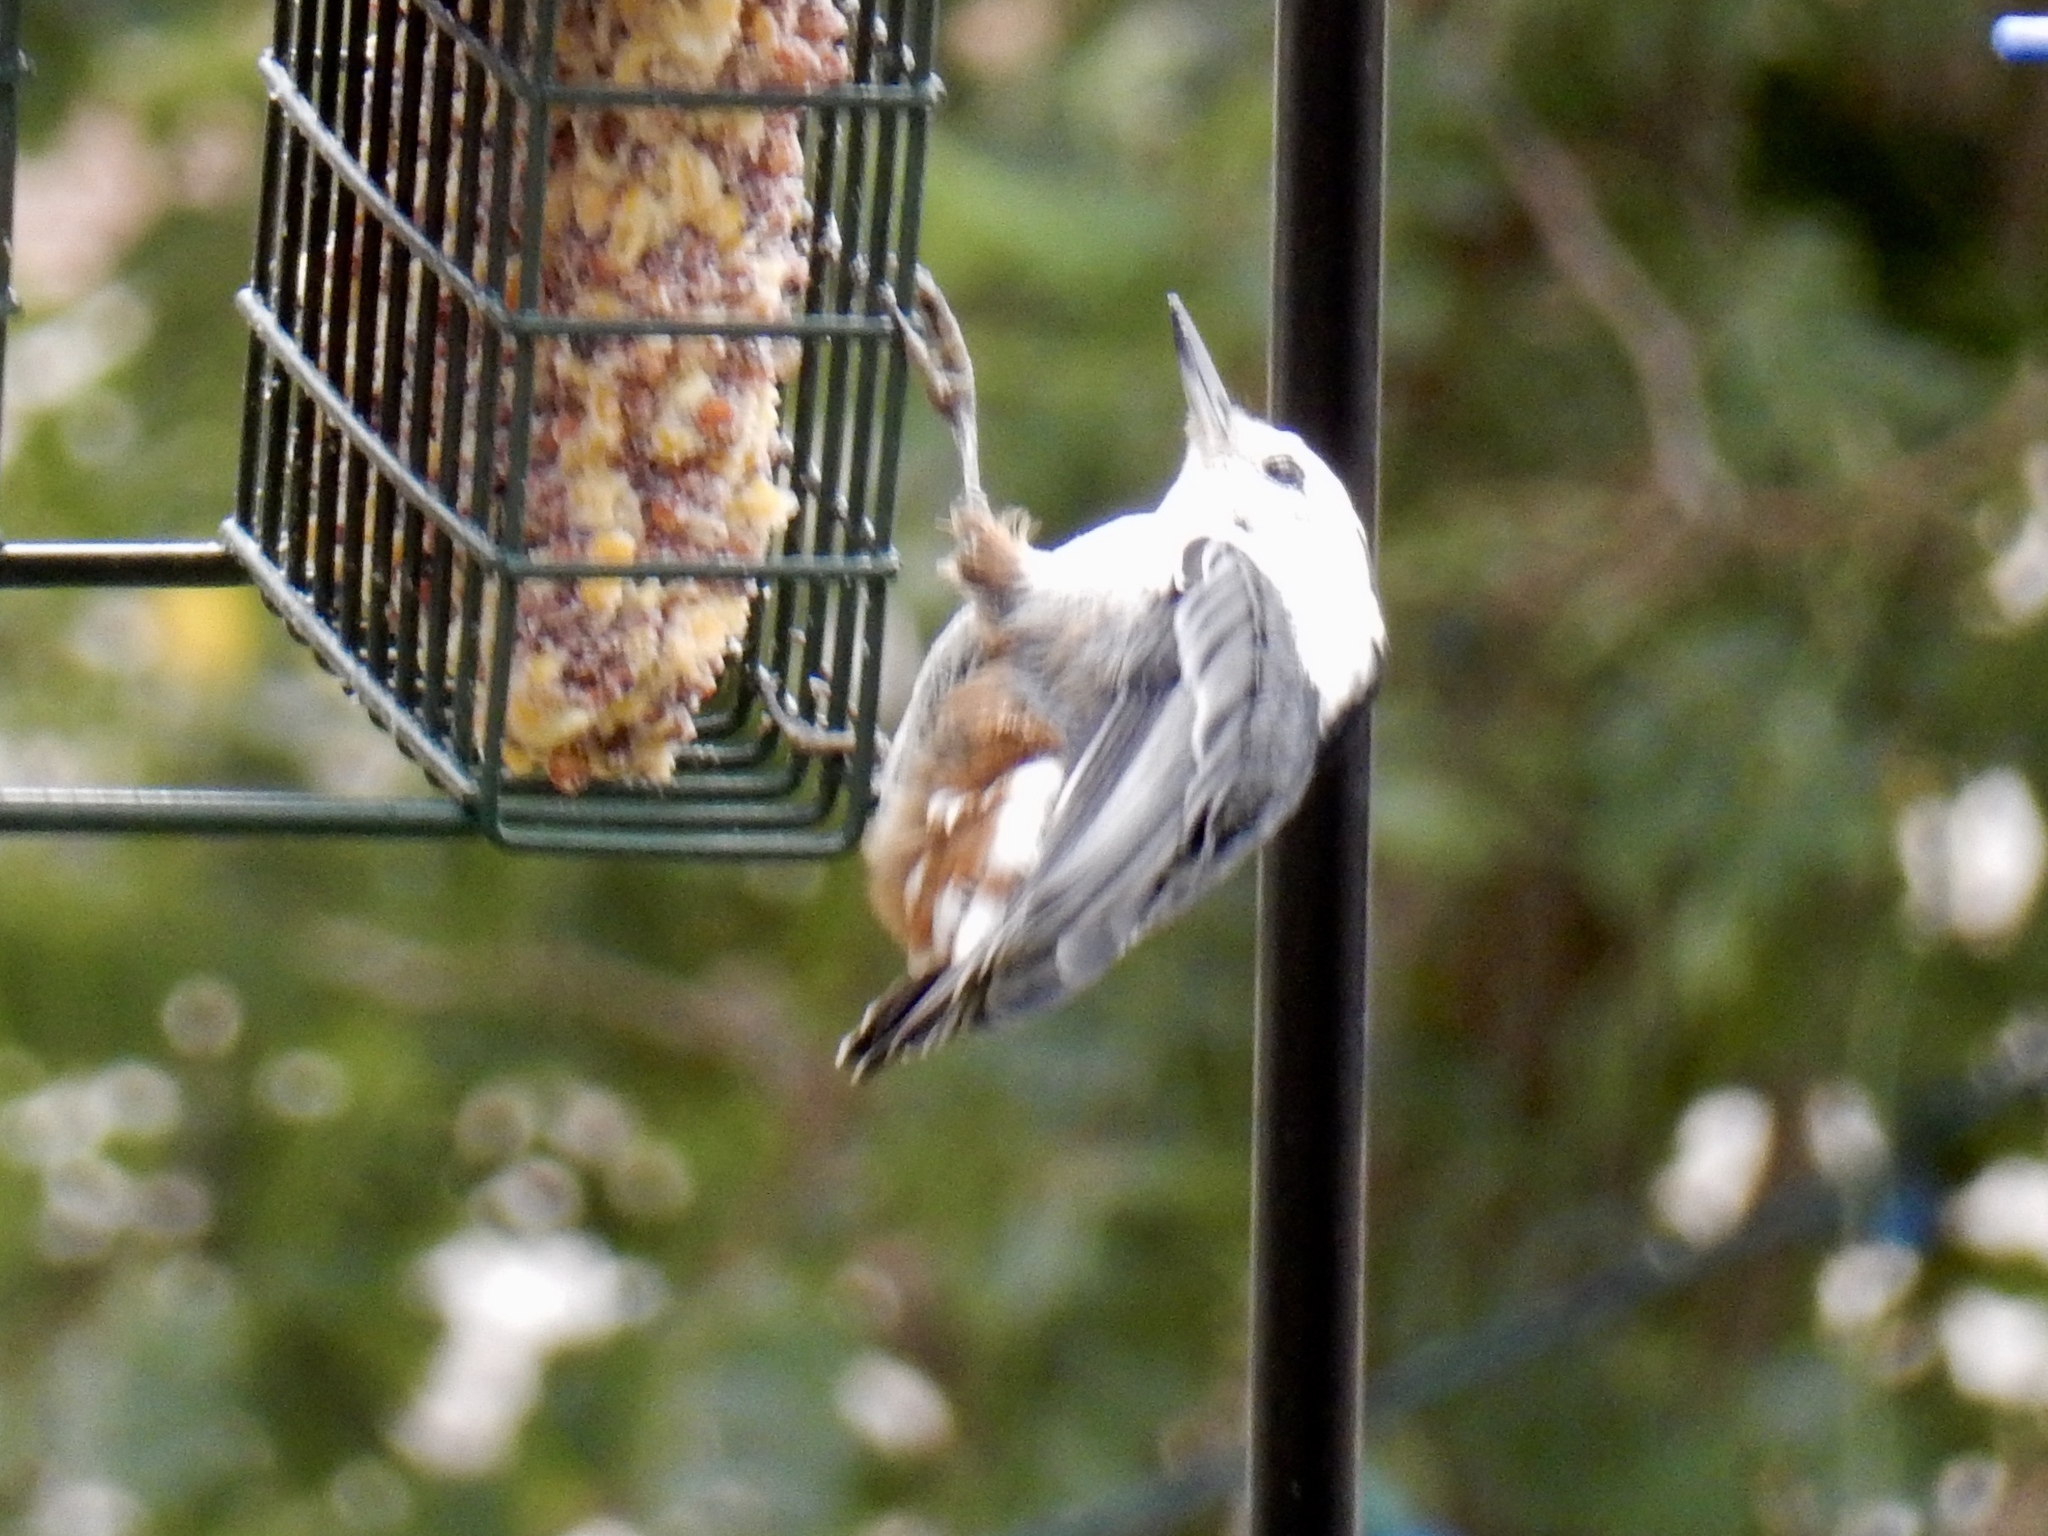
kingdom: Animalia
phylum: Chordata
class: Aves
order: Passeriformes
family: Sittidae
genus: Sitta
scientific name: Sitta carolinensis
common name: White-breasted nuthatch
